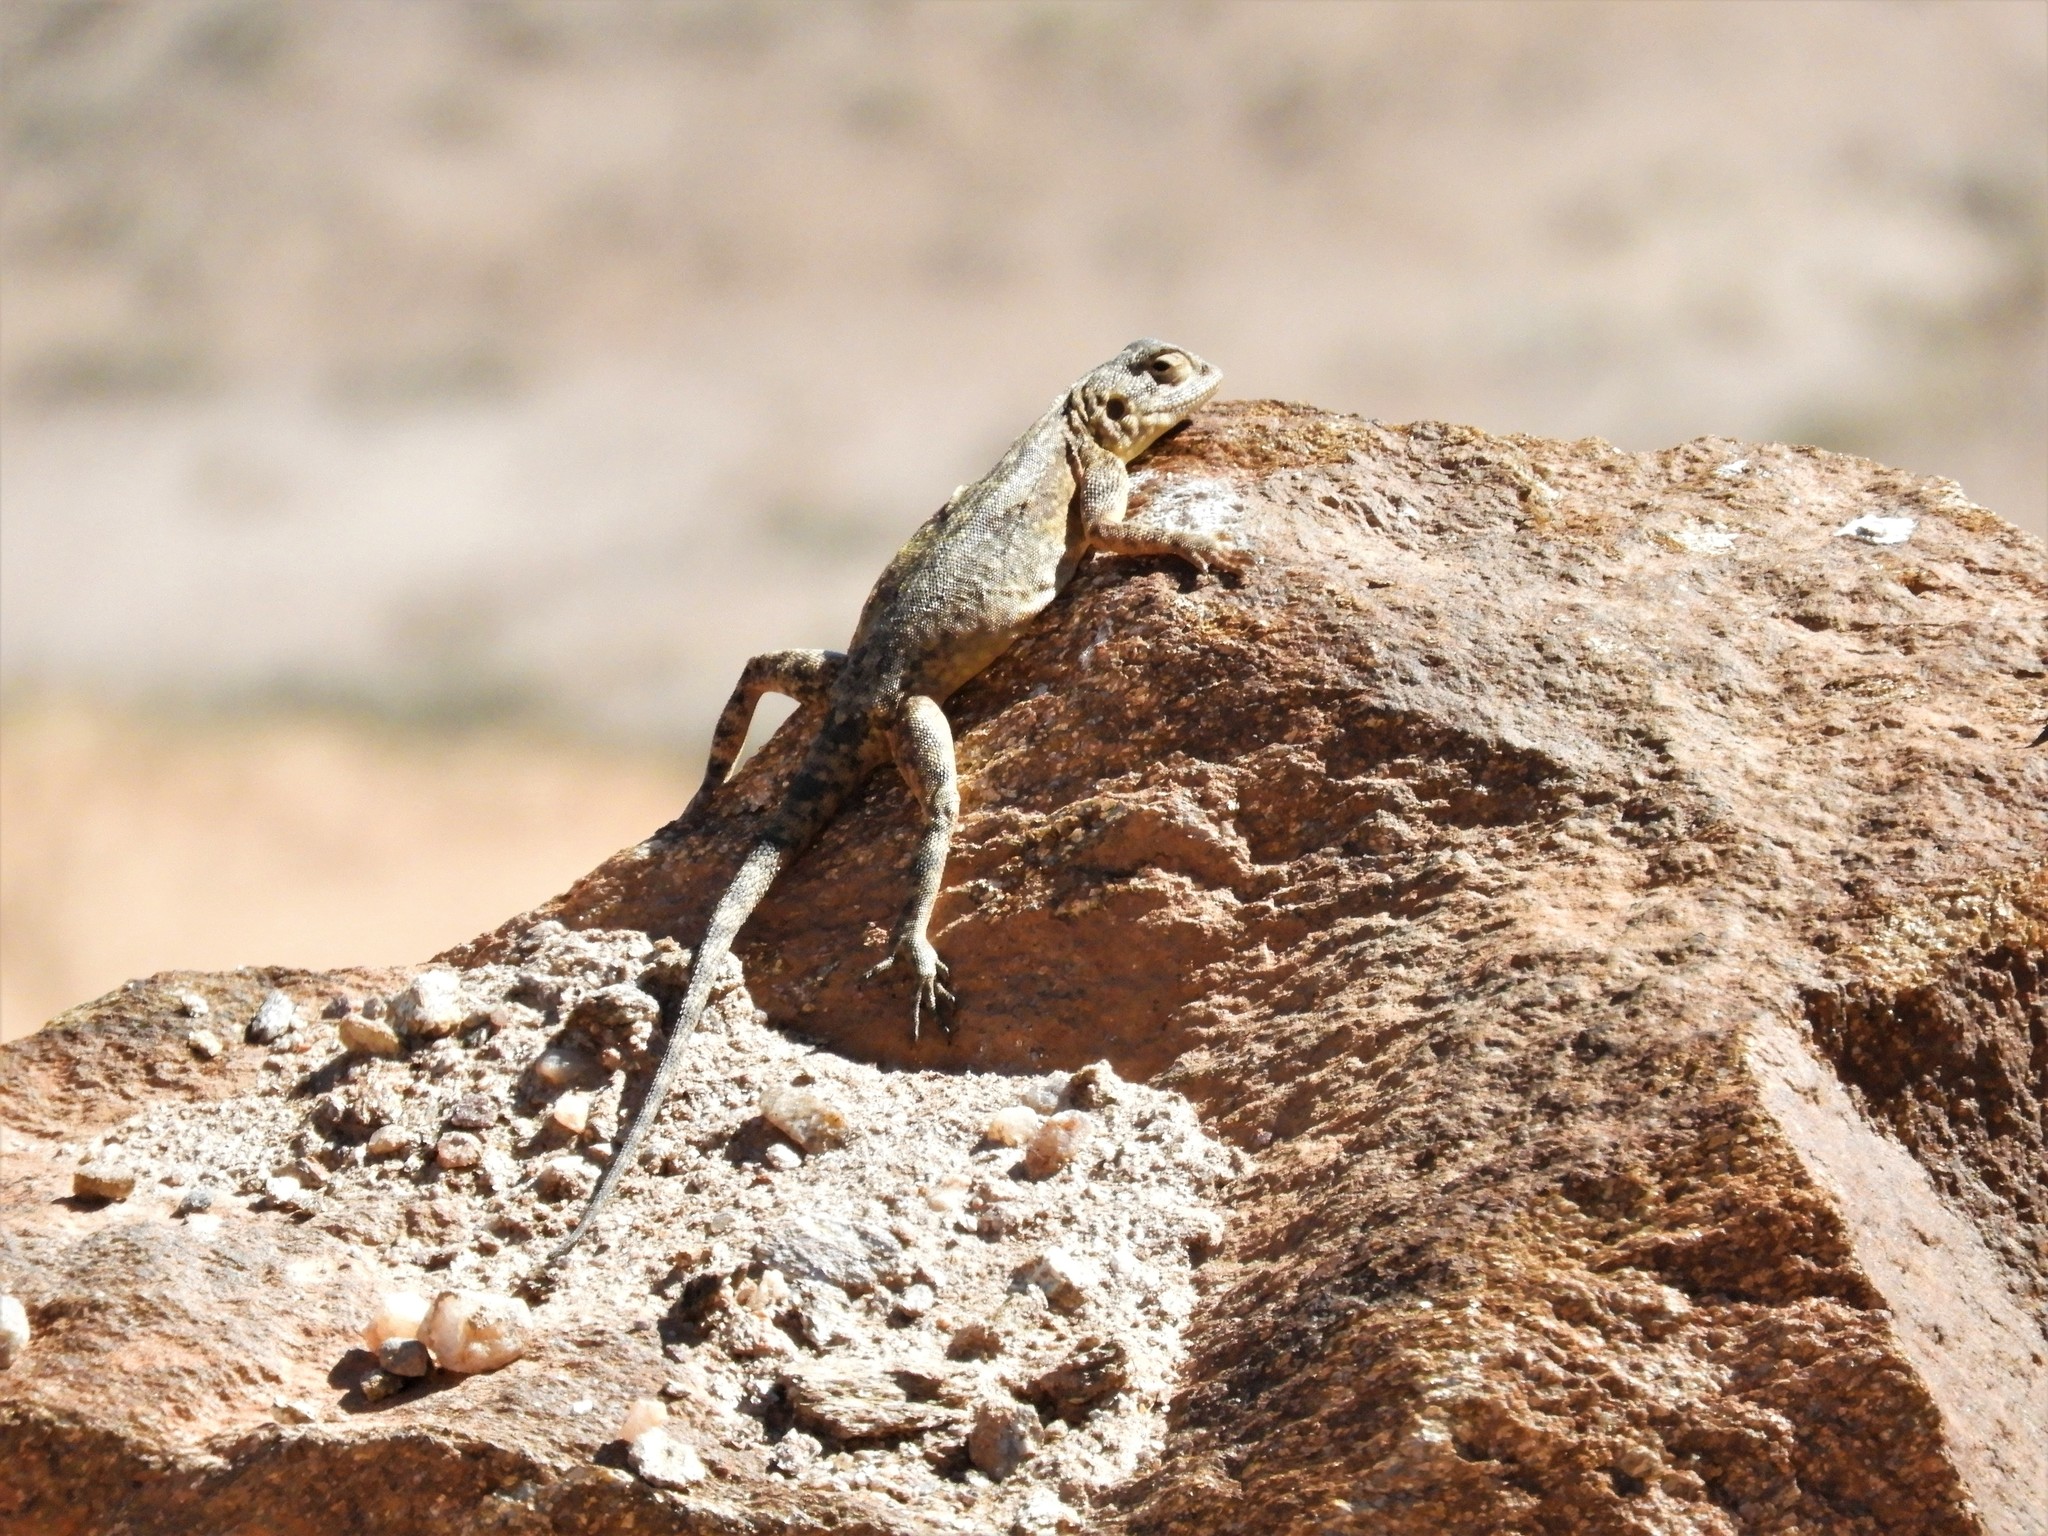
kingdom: Animalia
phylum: Chordata
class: Squamata
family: Agamidae
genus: Agama
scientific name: Agama atra
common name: Southern african rock agama
